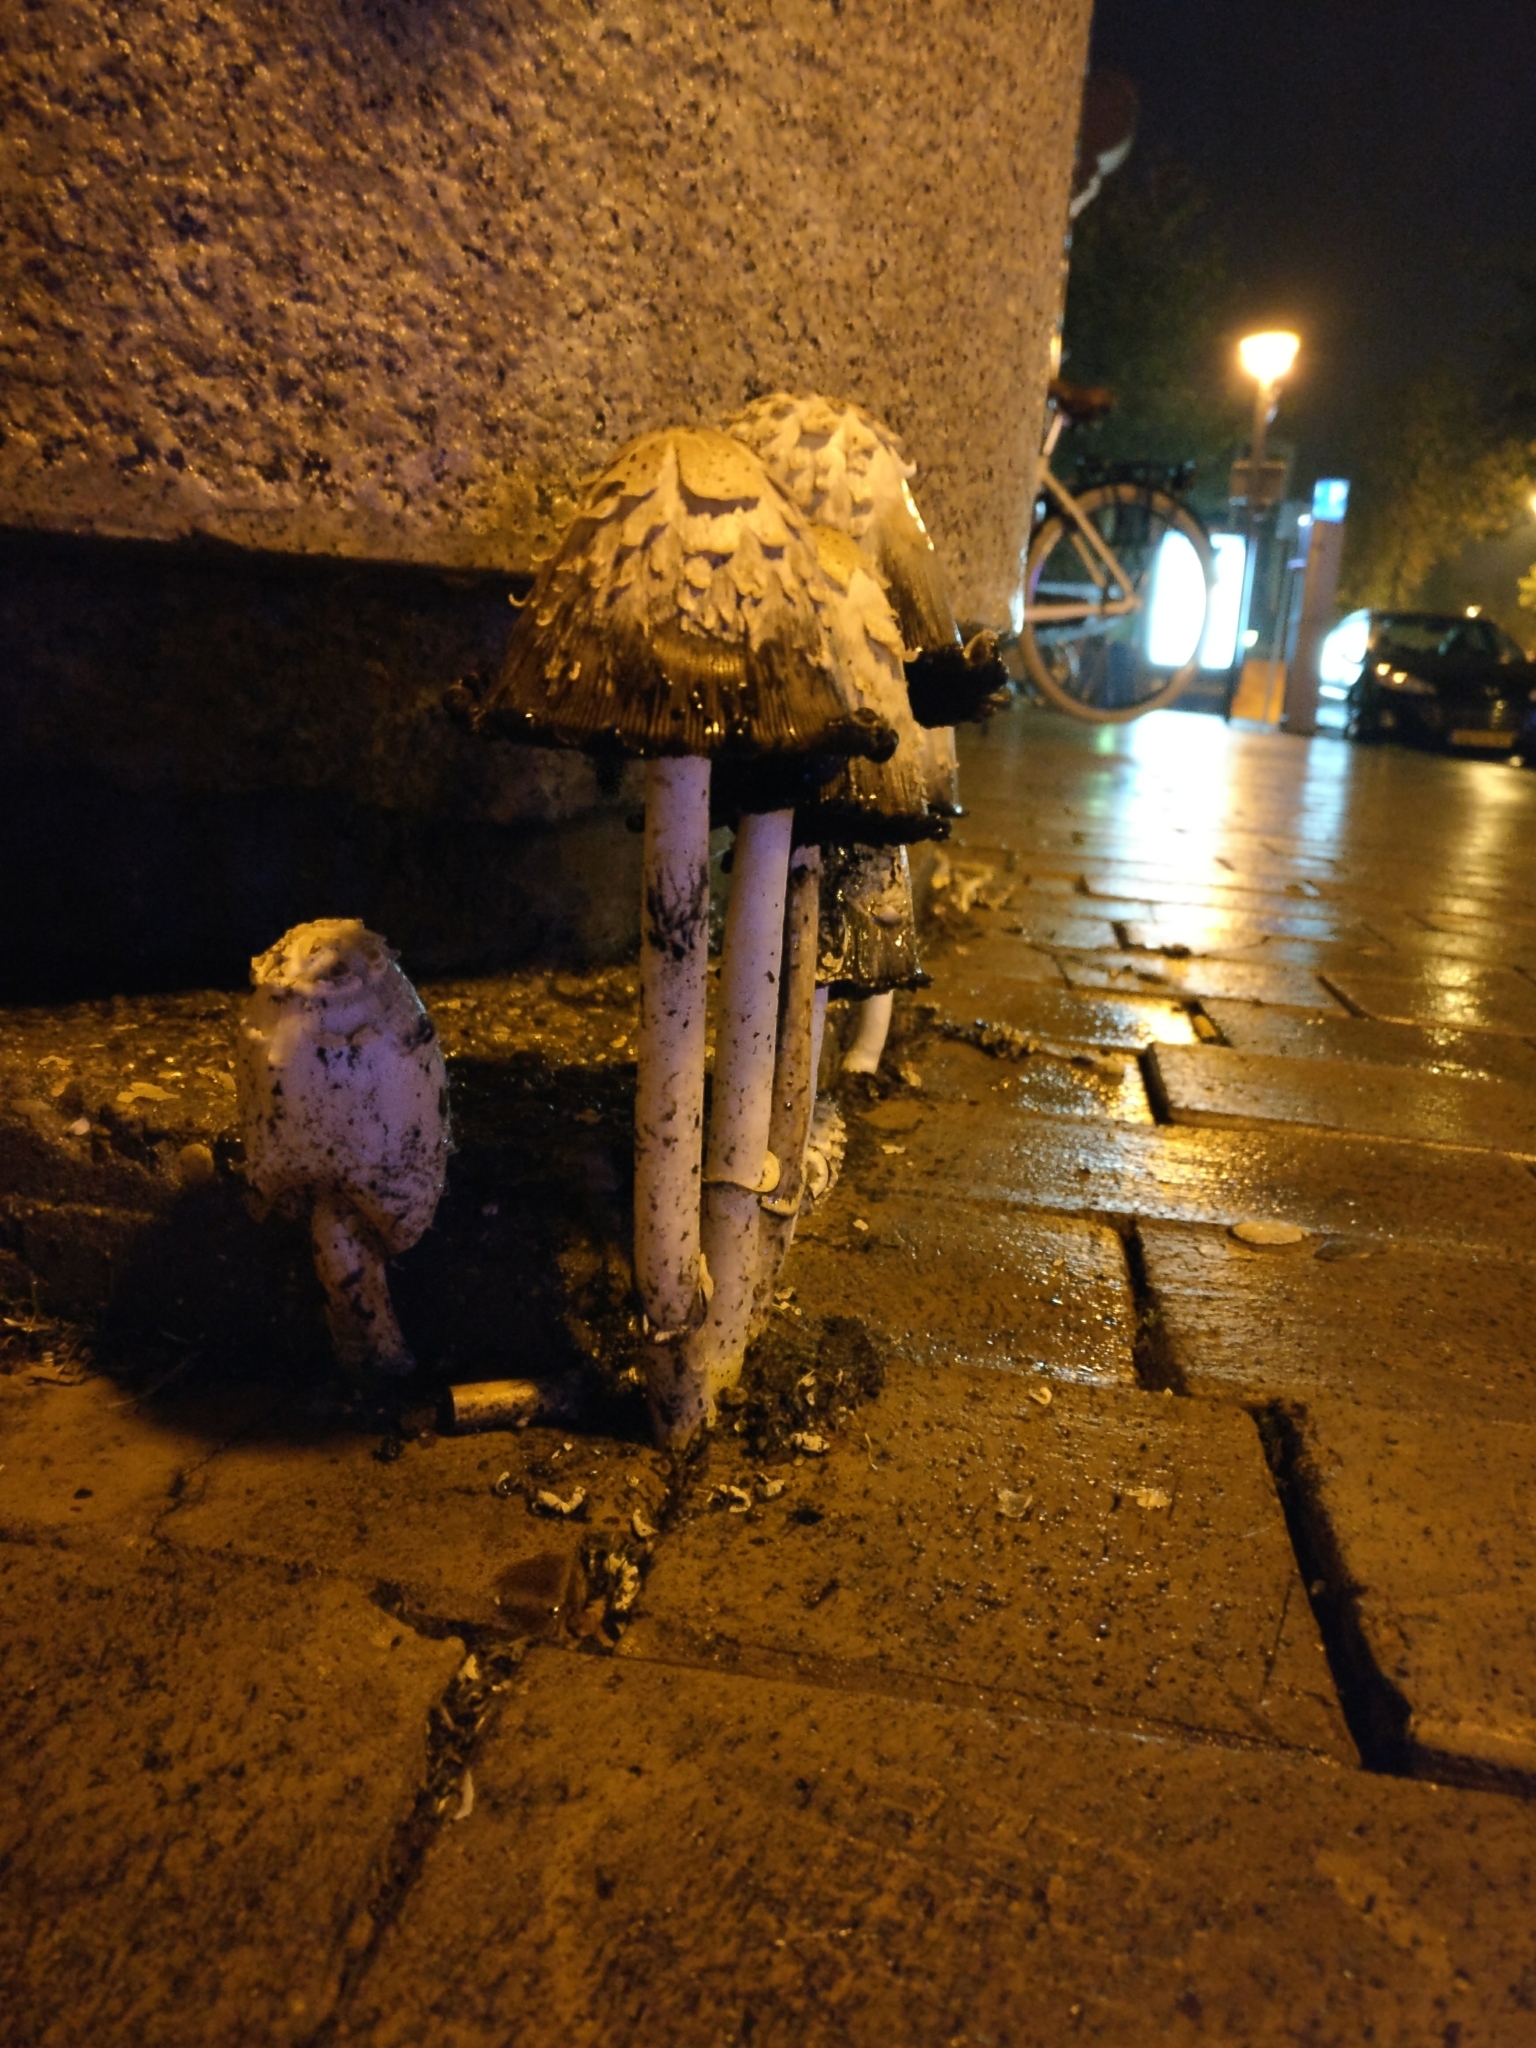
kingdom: Fungi
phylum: Basidiomycota
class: Agaricomycetes
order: Agaricales
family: Agaricaceae
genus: Coprinus
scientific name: Coprinus comatus
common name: Lawyer's wig
